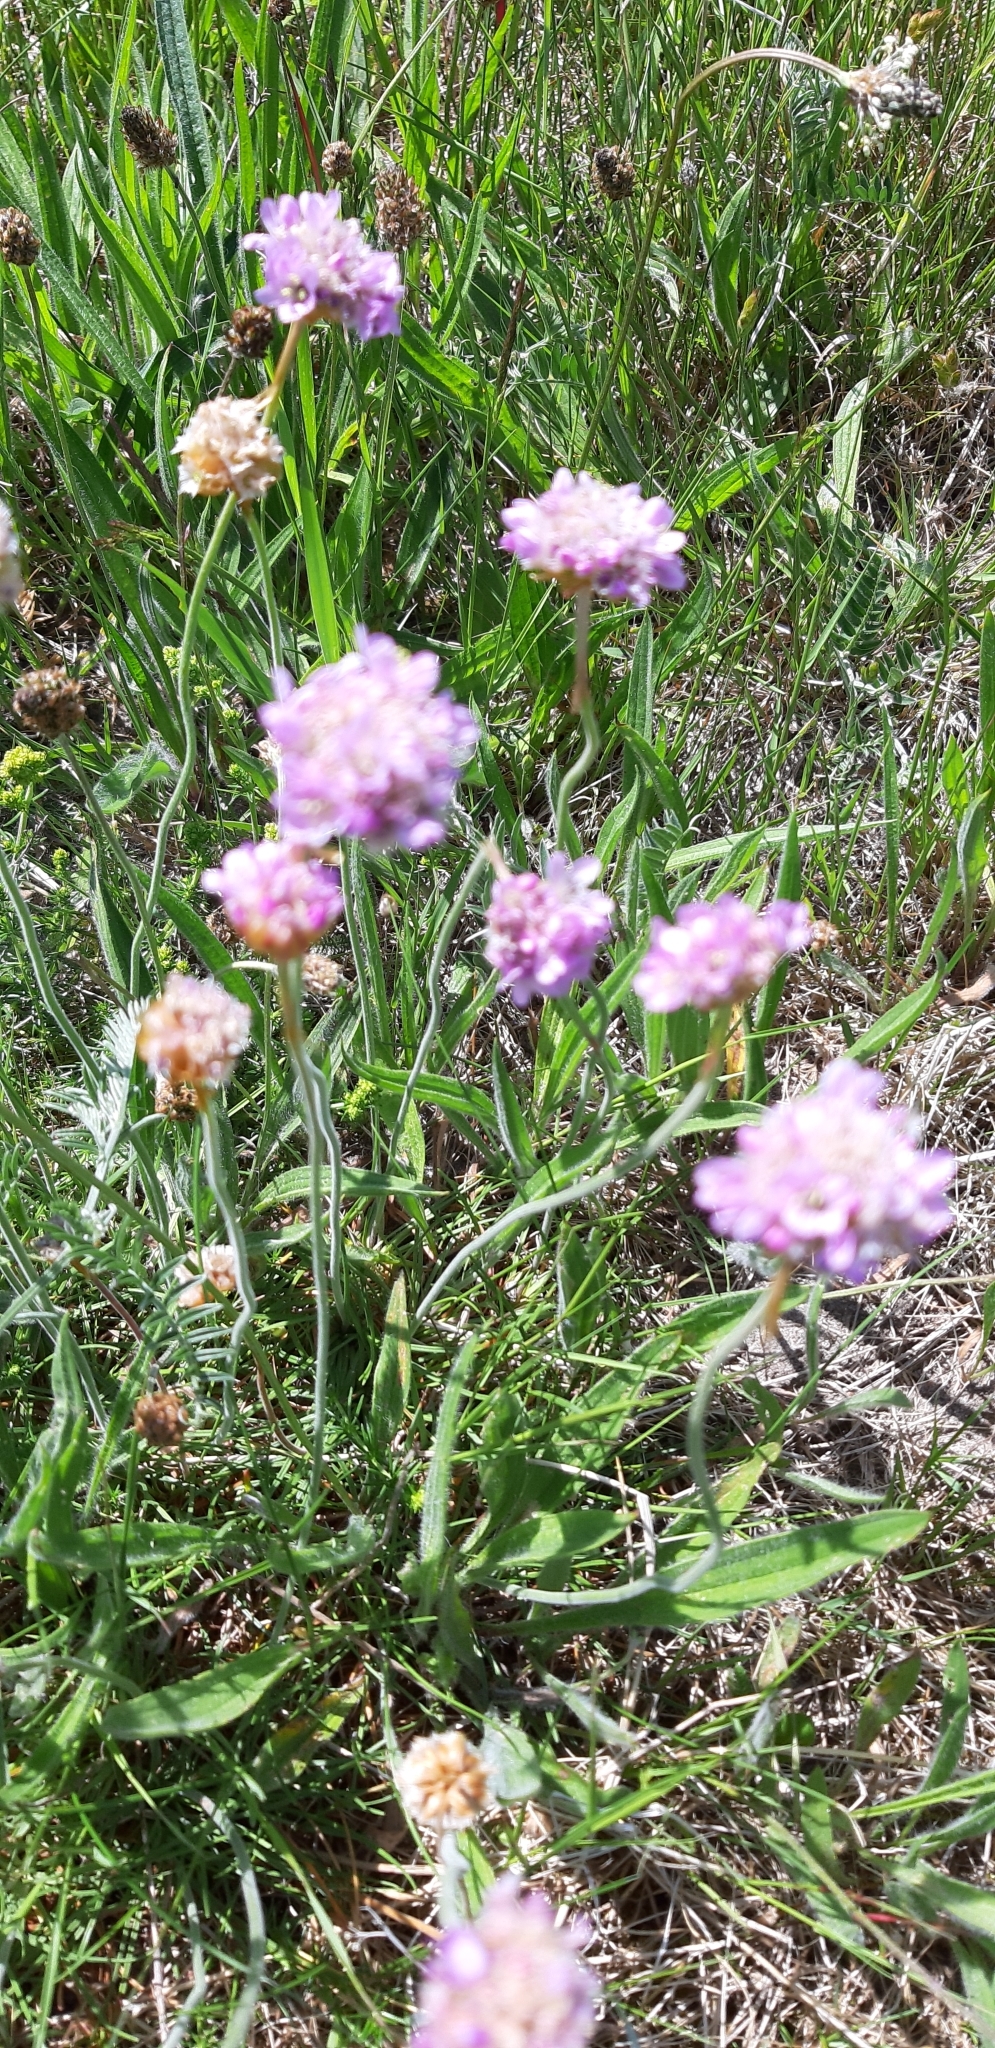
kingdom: Plantae
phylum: Tracheophyta
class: Magnoliopsida
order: Caryophyllales
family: Plumbaginaceae
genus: Armeria
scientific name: Armeria maritima
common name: Thrift
